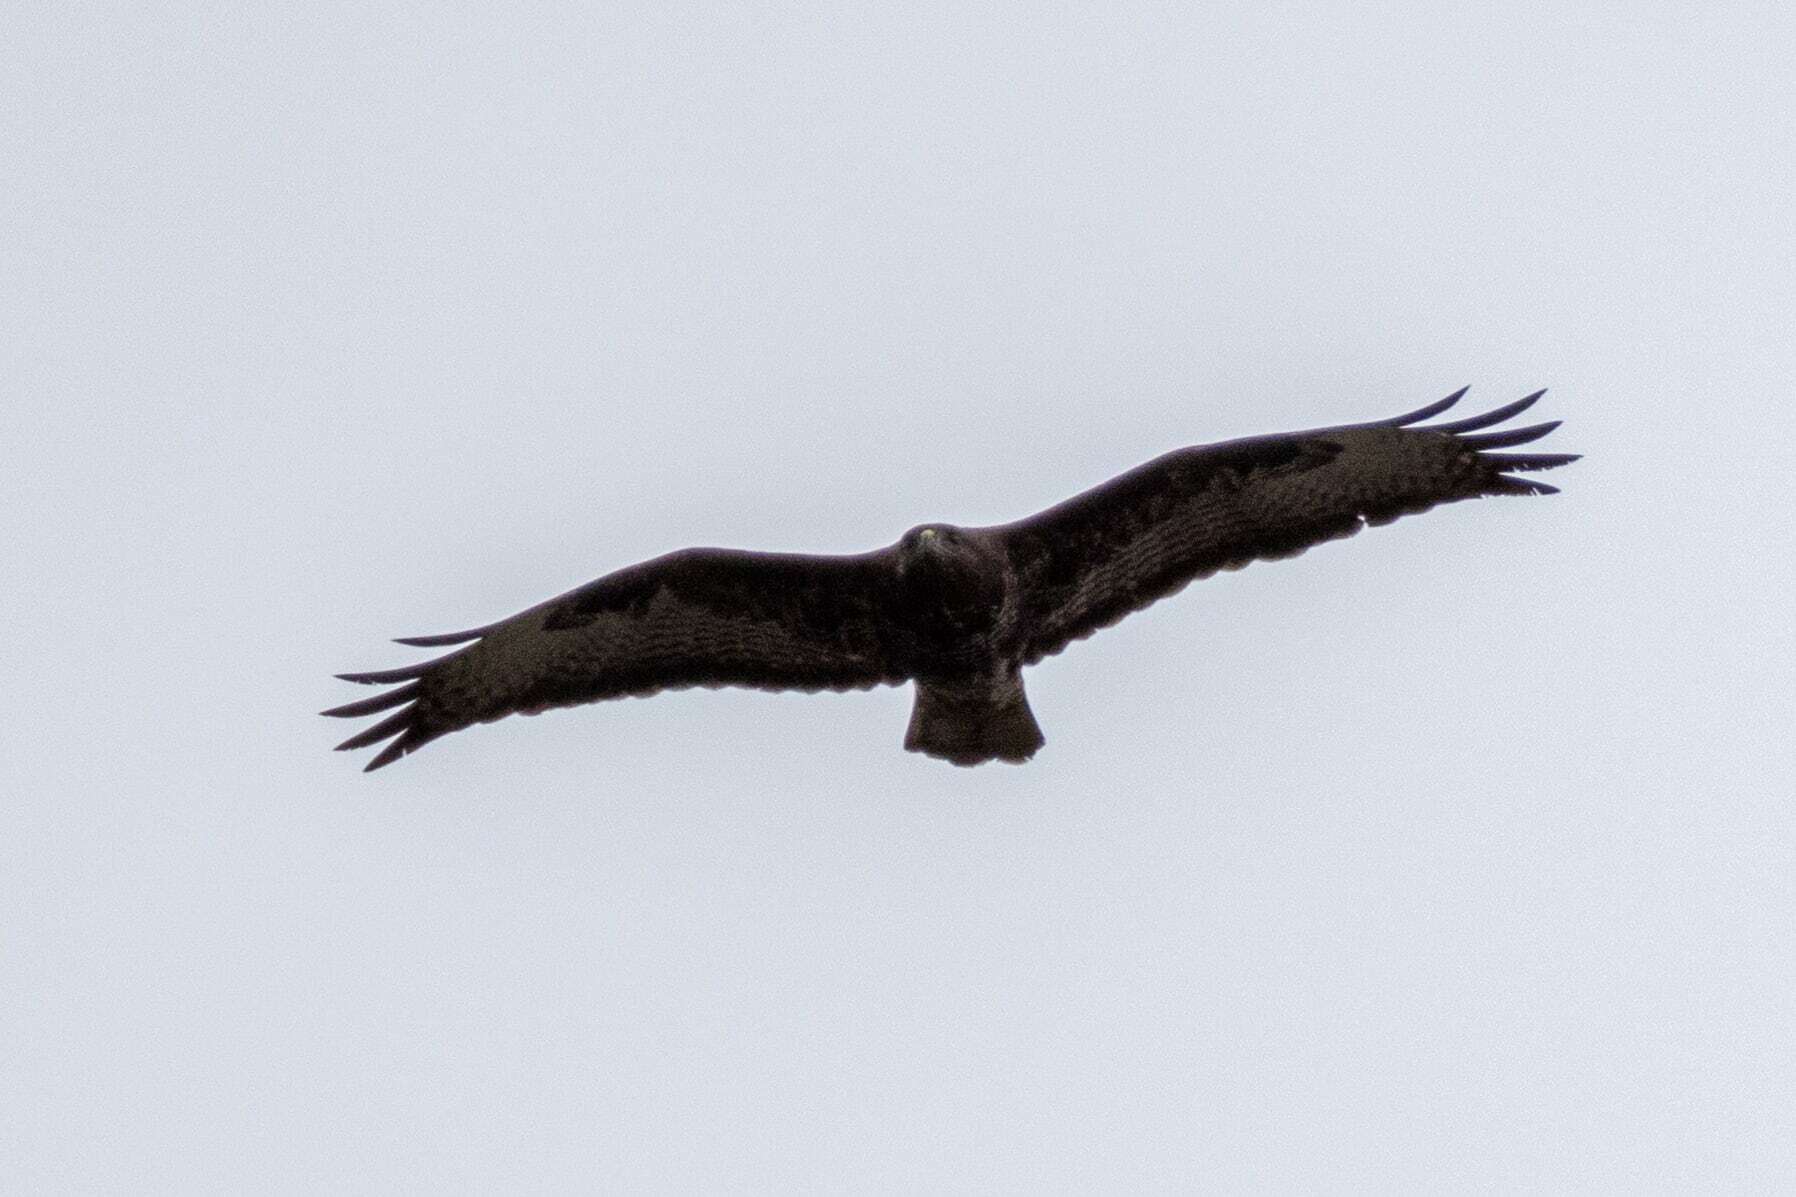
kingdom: Animalia
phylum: Chordata
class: Aves
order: Accipitriformes
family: Accipitridae
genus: Buteo
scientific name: Buteo buteo
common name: Common buzzard
